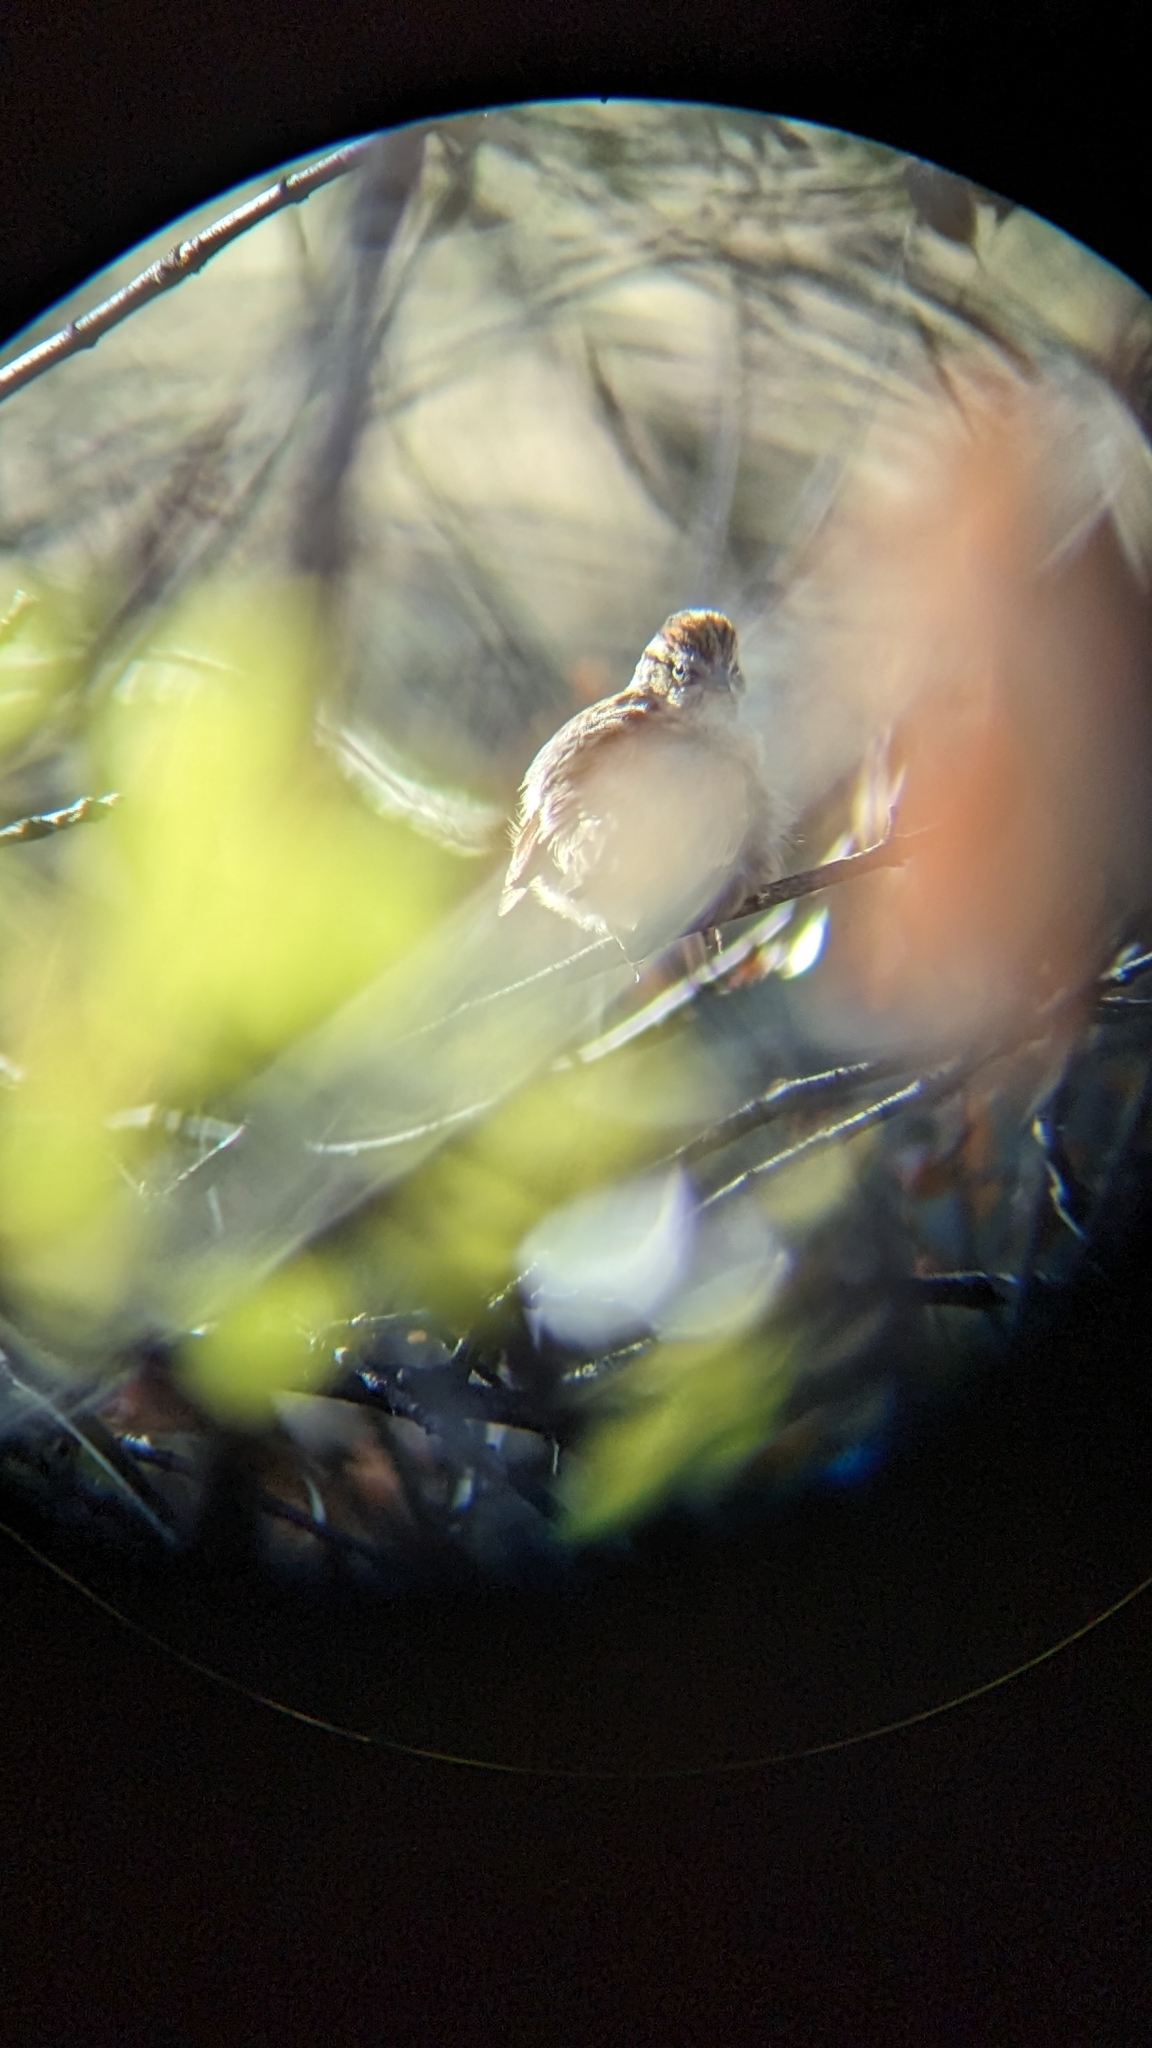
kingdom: Animalia
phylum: Chordata
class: Aves
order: Passeriformes
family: Passerellidae
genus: Spizella
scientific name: Spizella passerina
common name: Chipping sparrow
